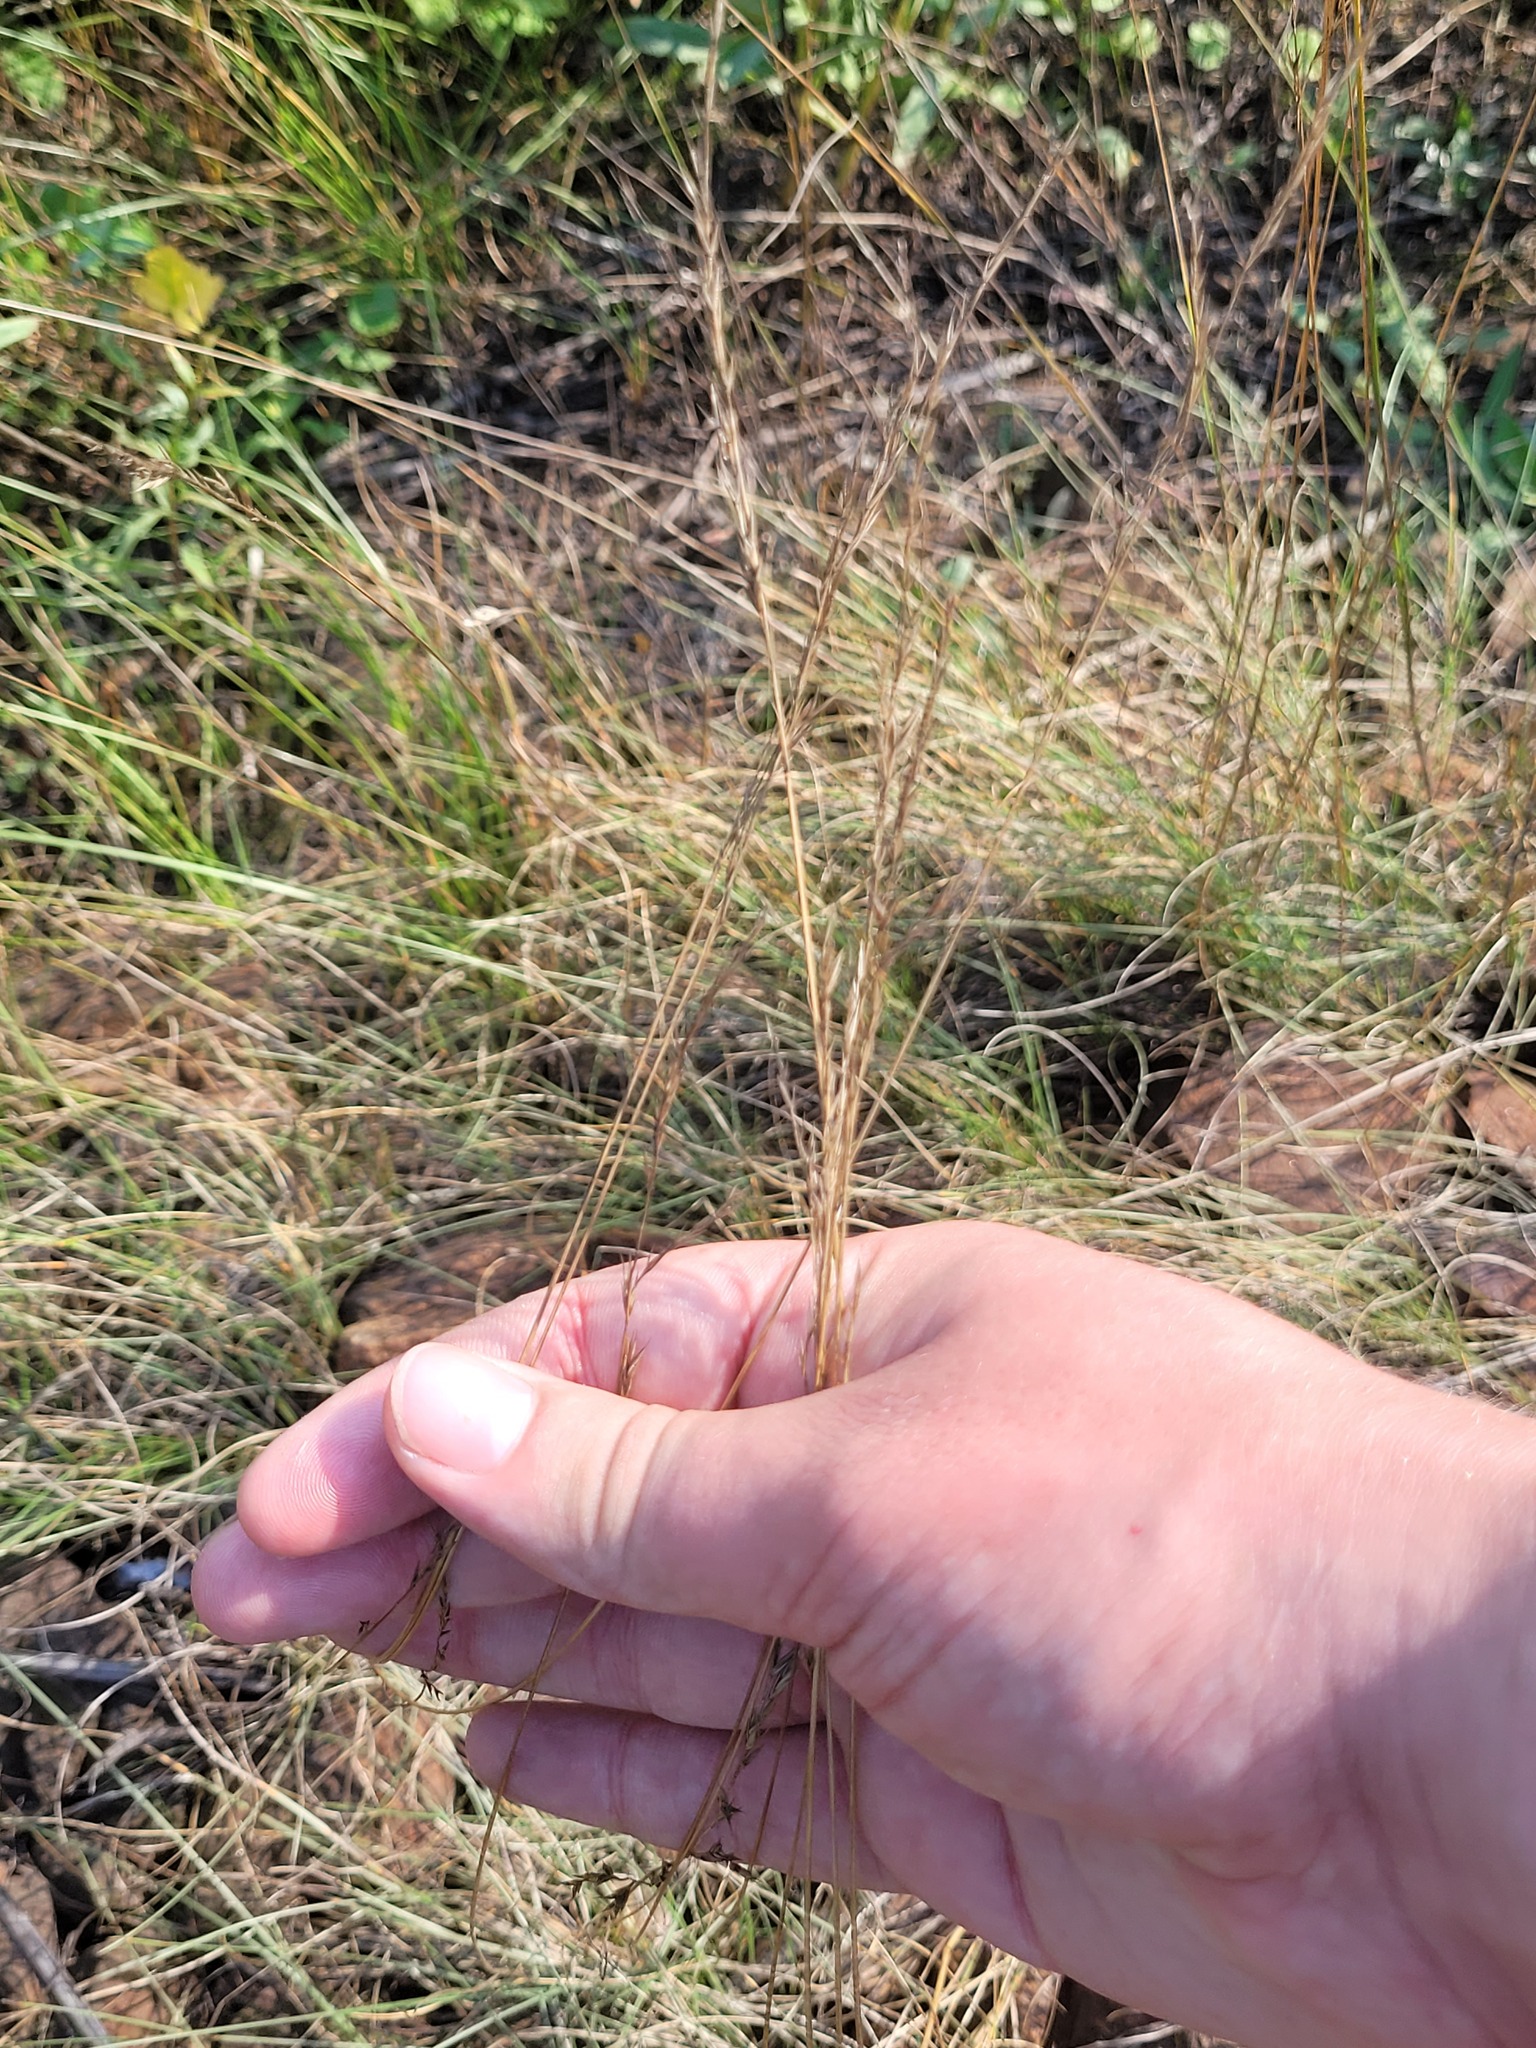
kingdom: Plantae
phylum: Tracheophyta
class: Liliopsida
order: Poales
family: Poaceae
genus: Festuca
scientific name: Festuca rubra
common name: Red fescue
